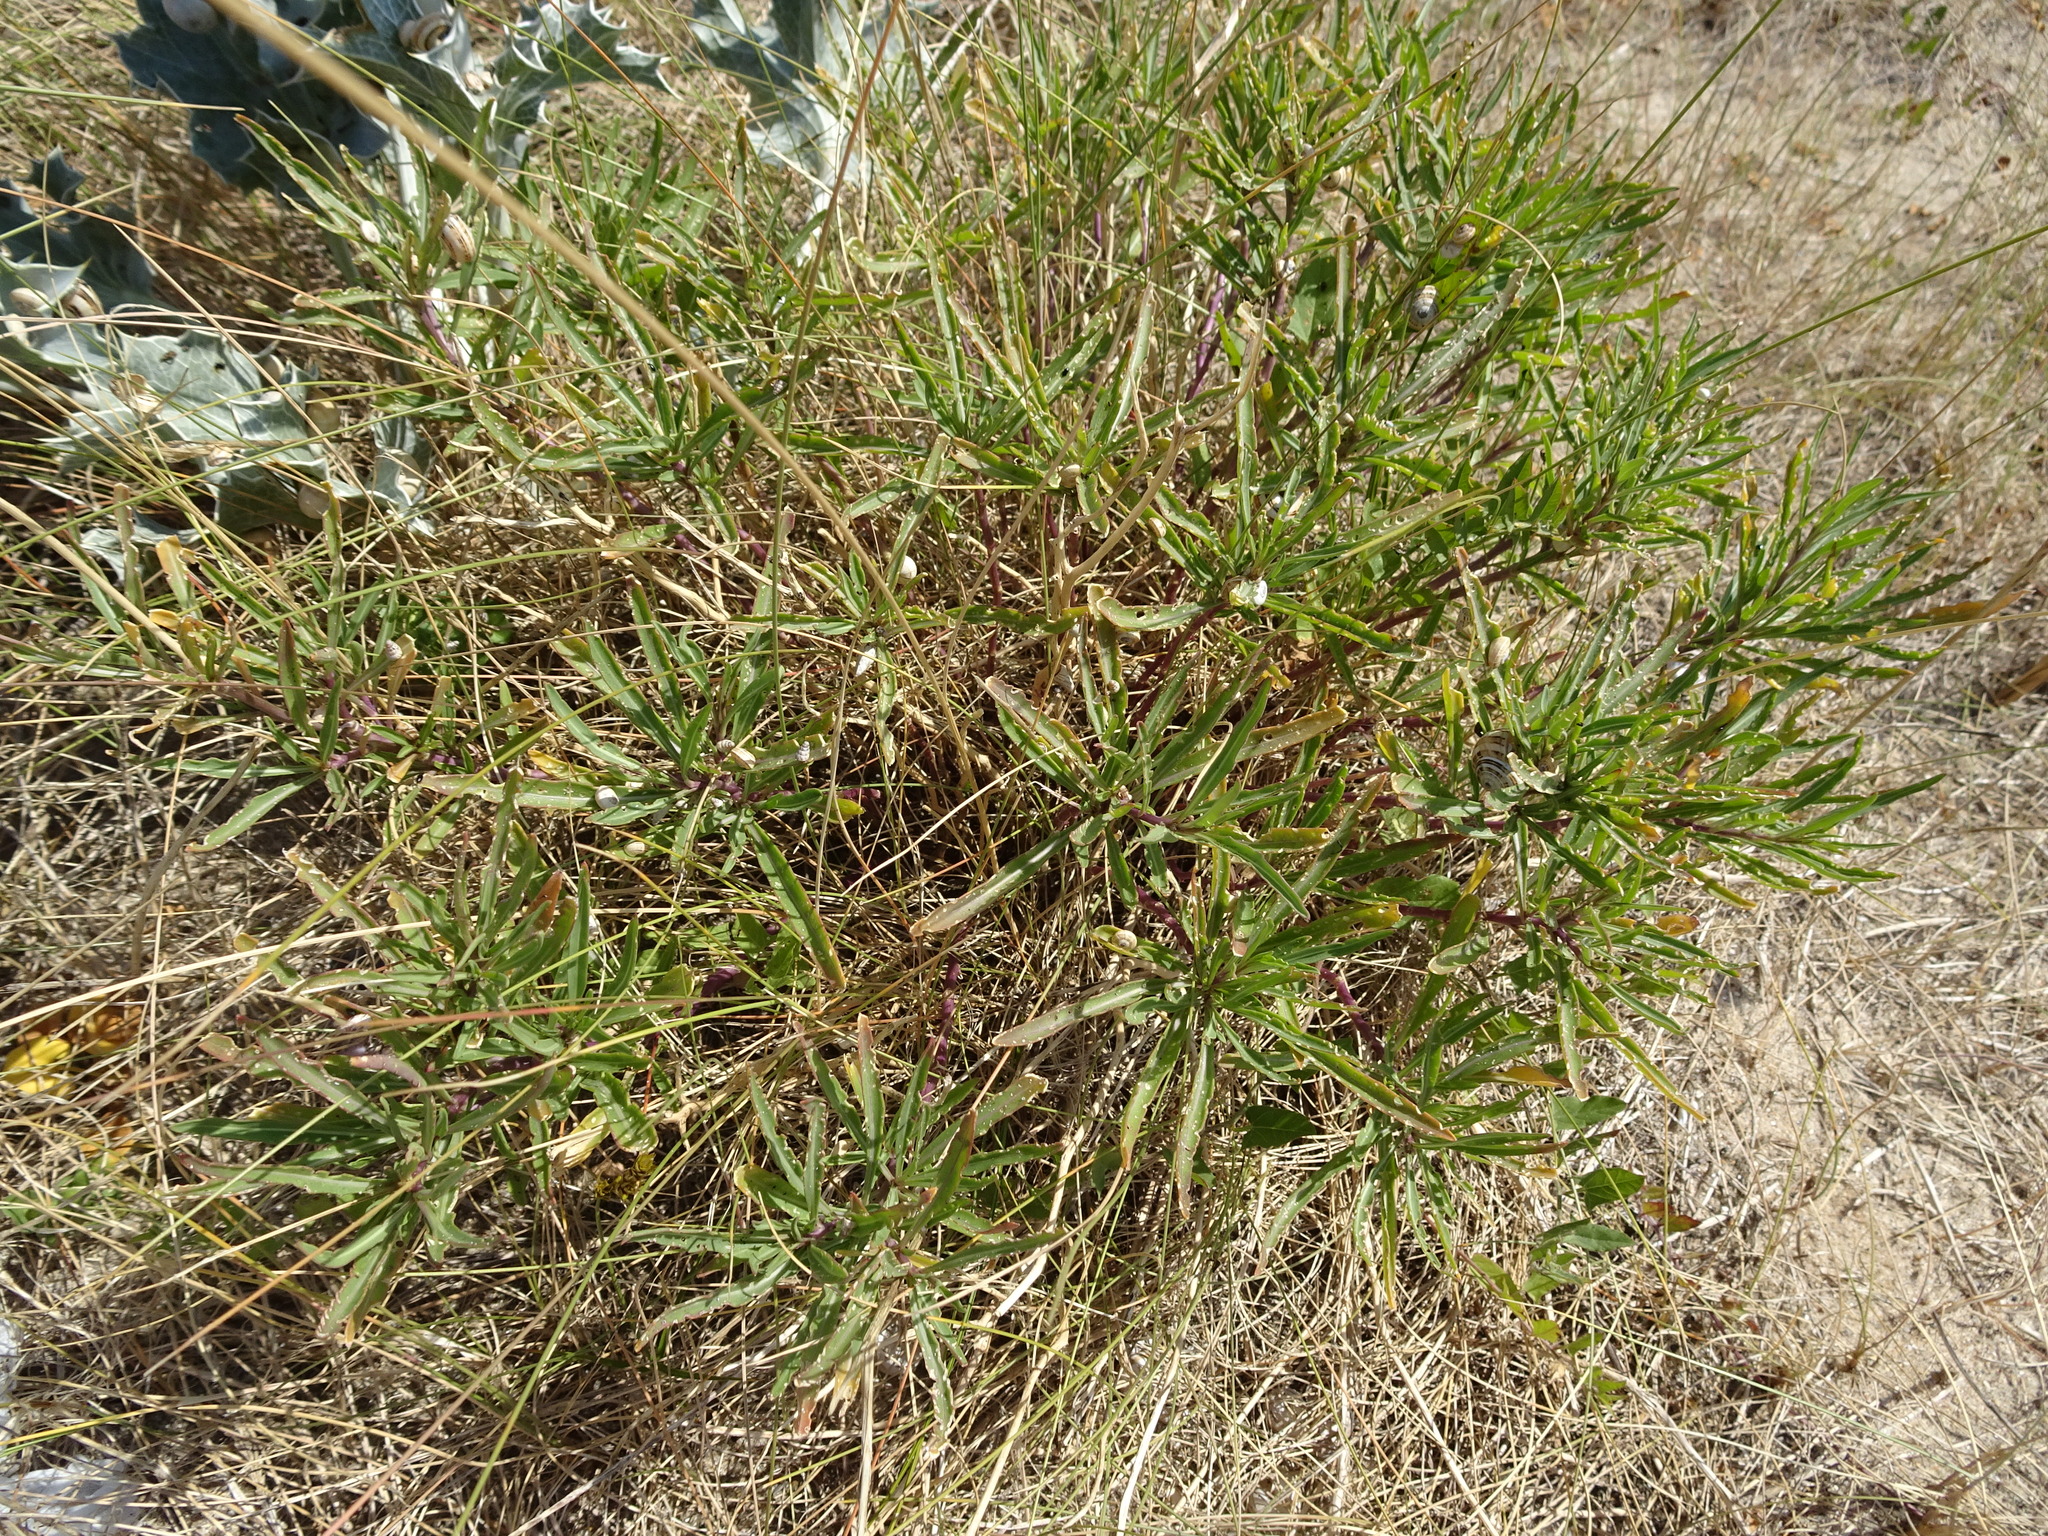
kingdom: Plantae
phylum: Tracheophyta
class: Magnoliopsida
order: Brassicales
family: Brassicaceae
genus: Diplotaxis
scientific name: Diplotaxis tenuifolia
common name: Perennial wall-rocket
